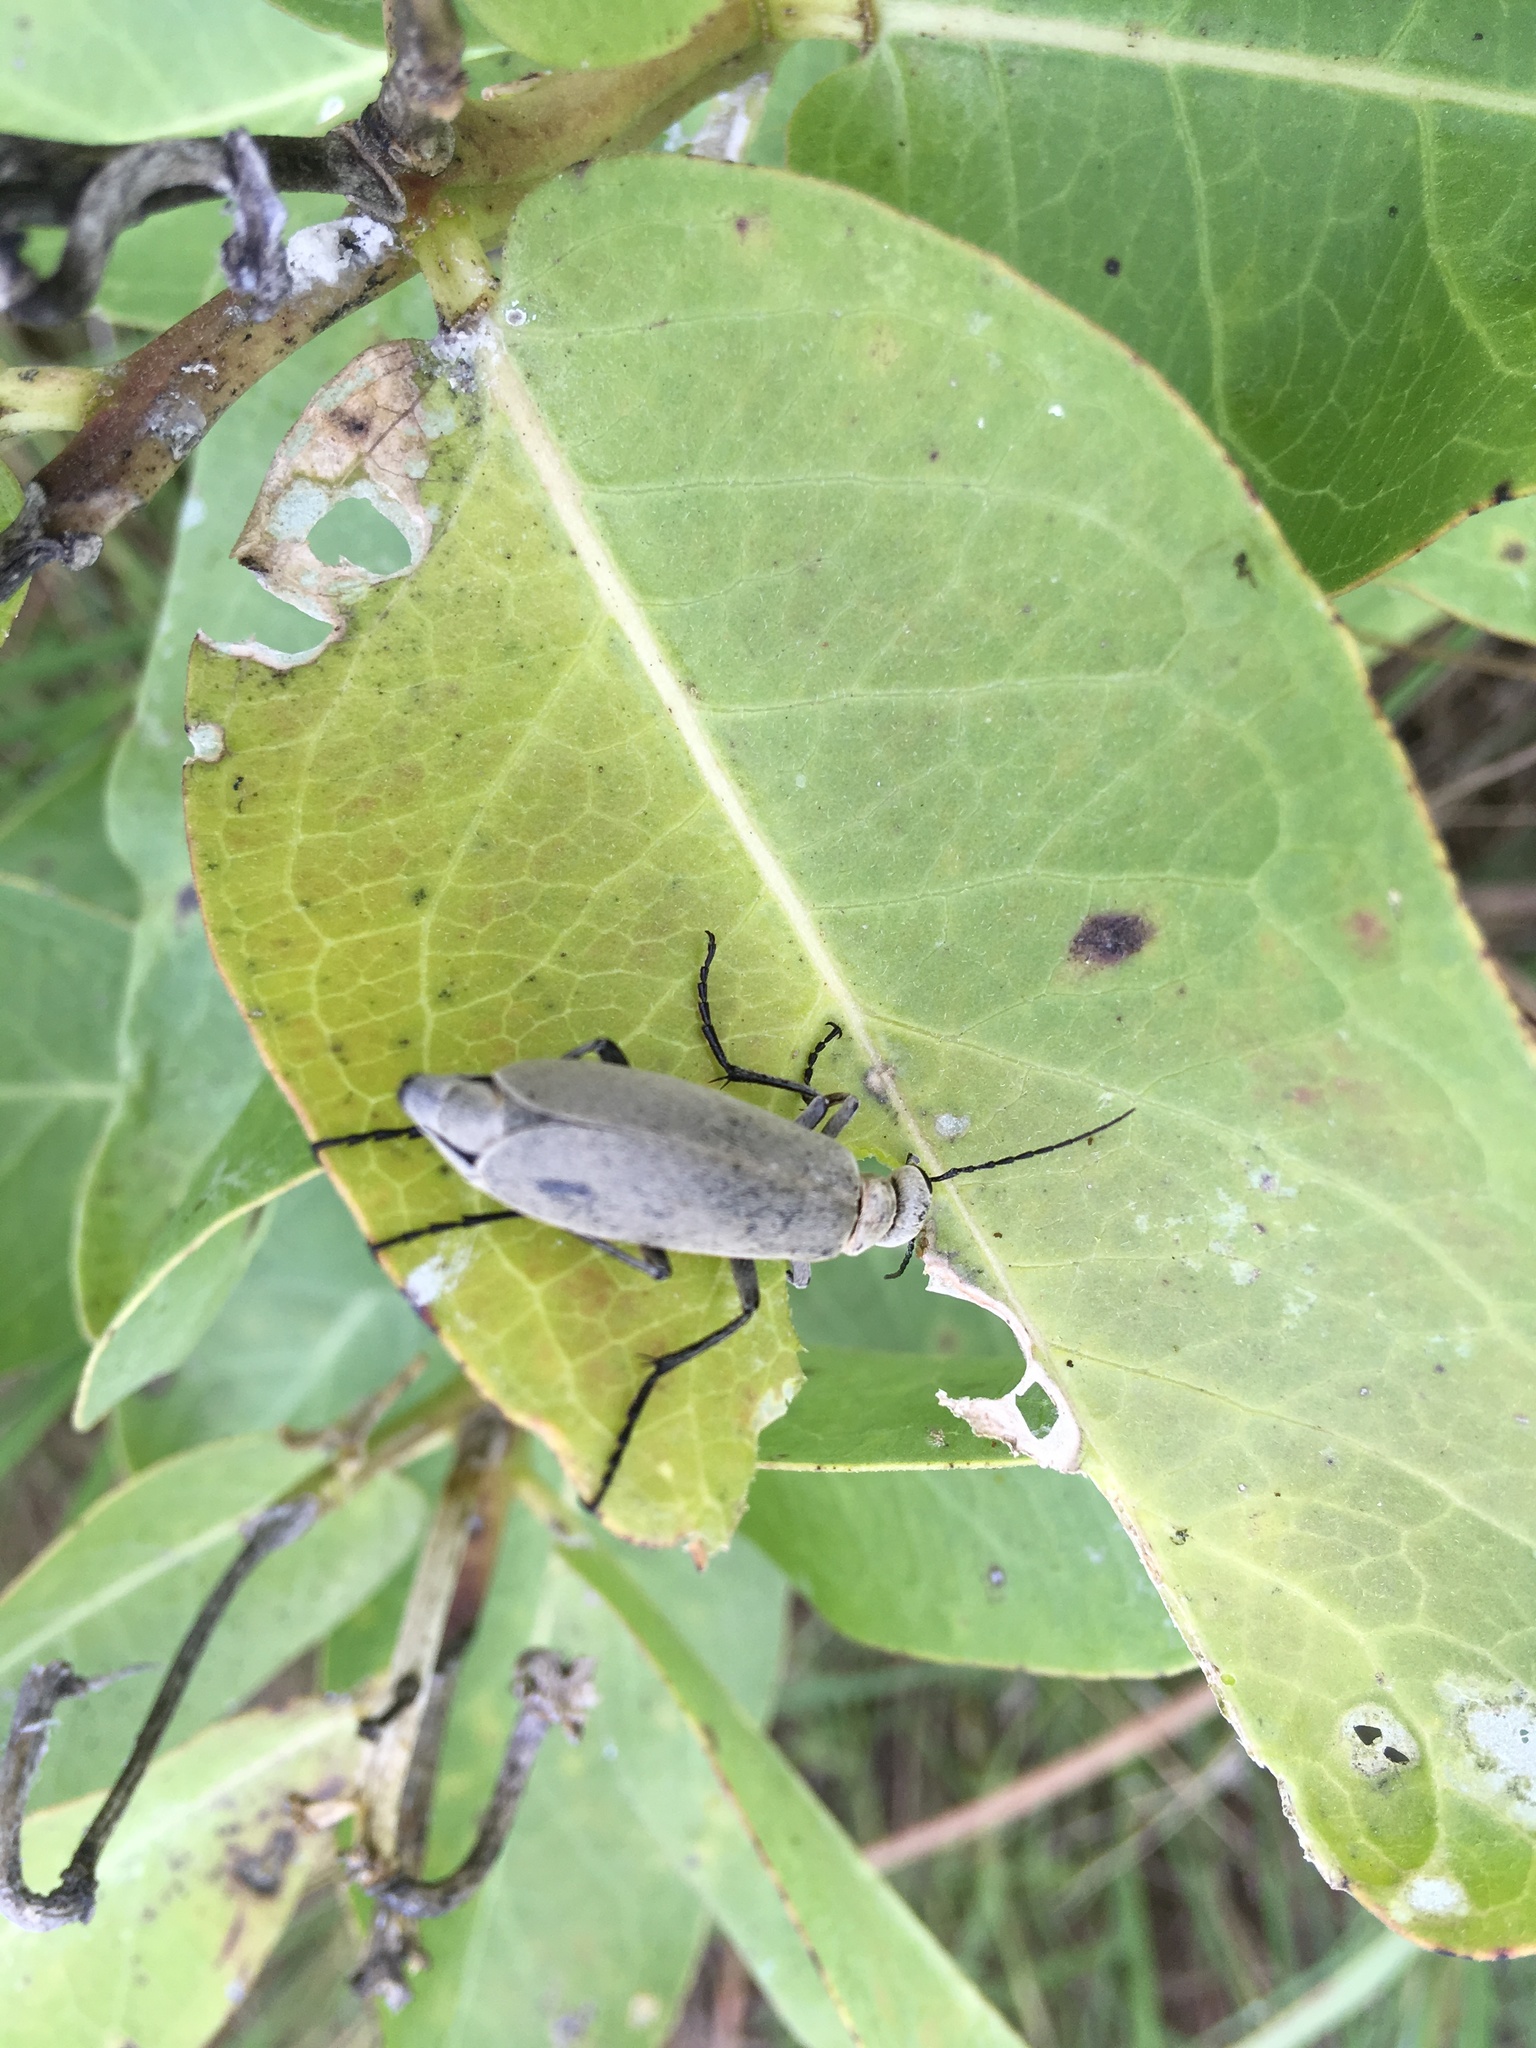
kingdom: Animalia
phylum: Arthropoda
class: Insecta
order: Coleoptera
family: Meloidae
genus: Epicauta
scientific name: Epicauta immaculata
